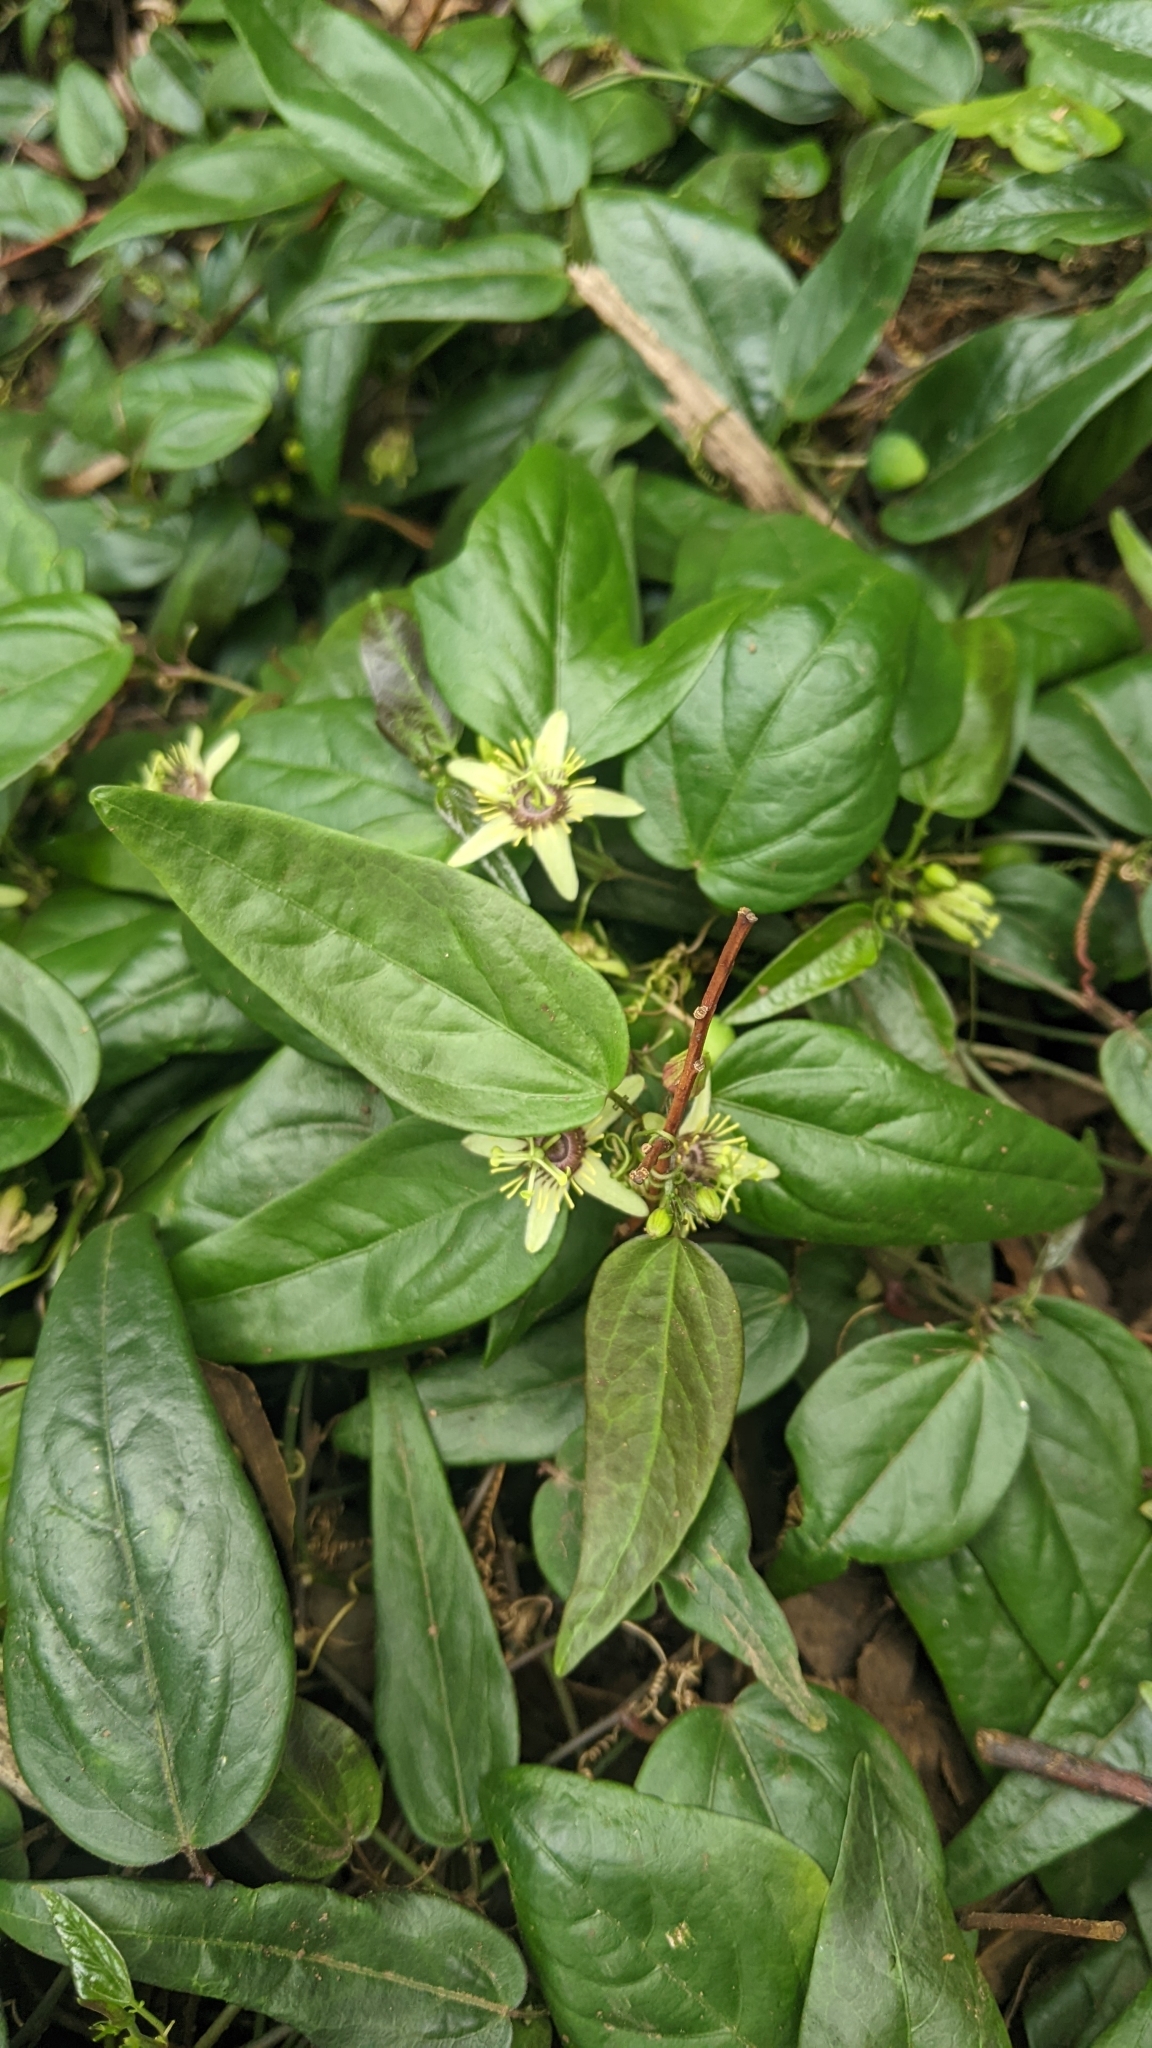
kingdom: Plantae
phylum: Tracheophyta
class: Magnoliopsida
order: Malpighiales
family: Passifloraceae
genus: Passiflora
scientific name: Passiflora pallida
